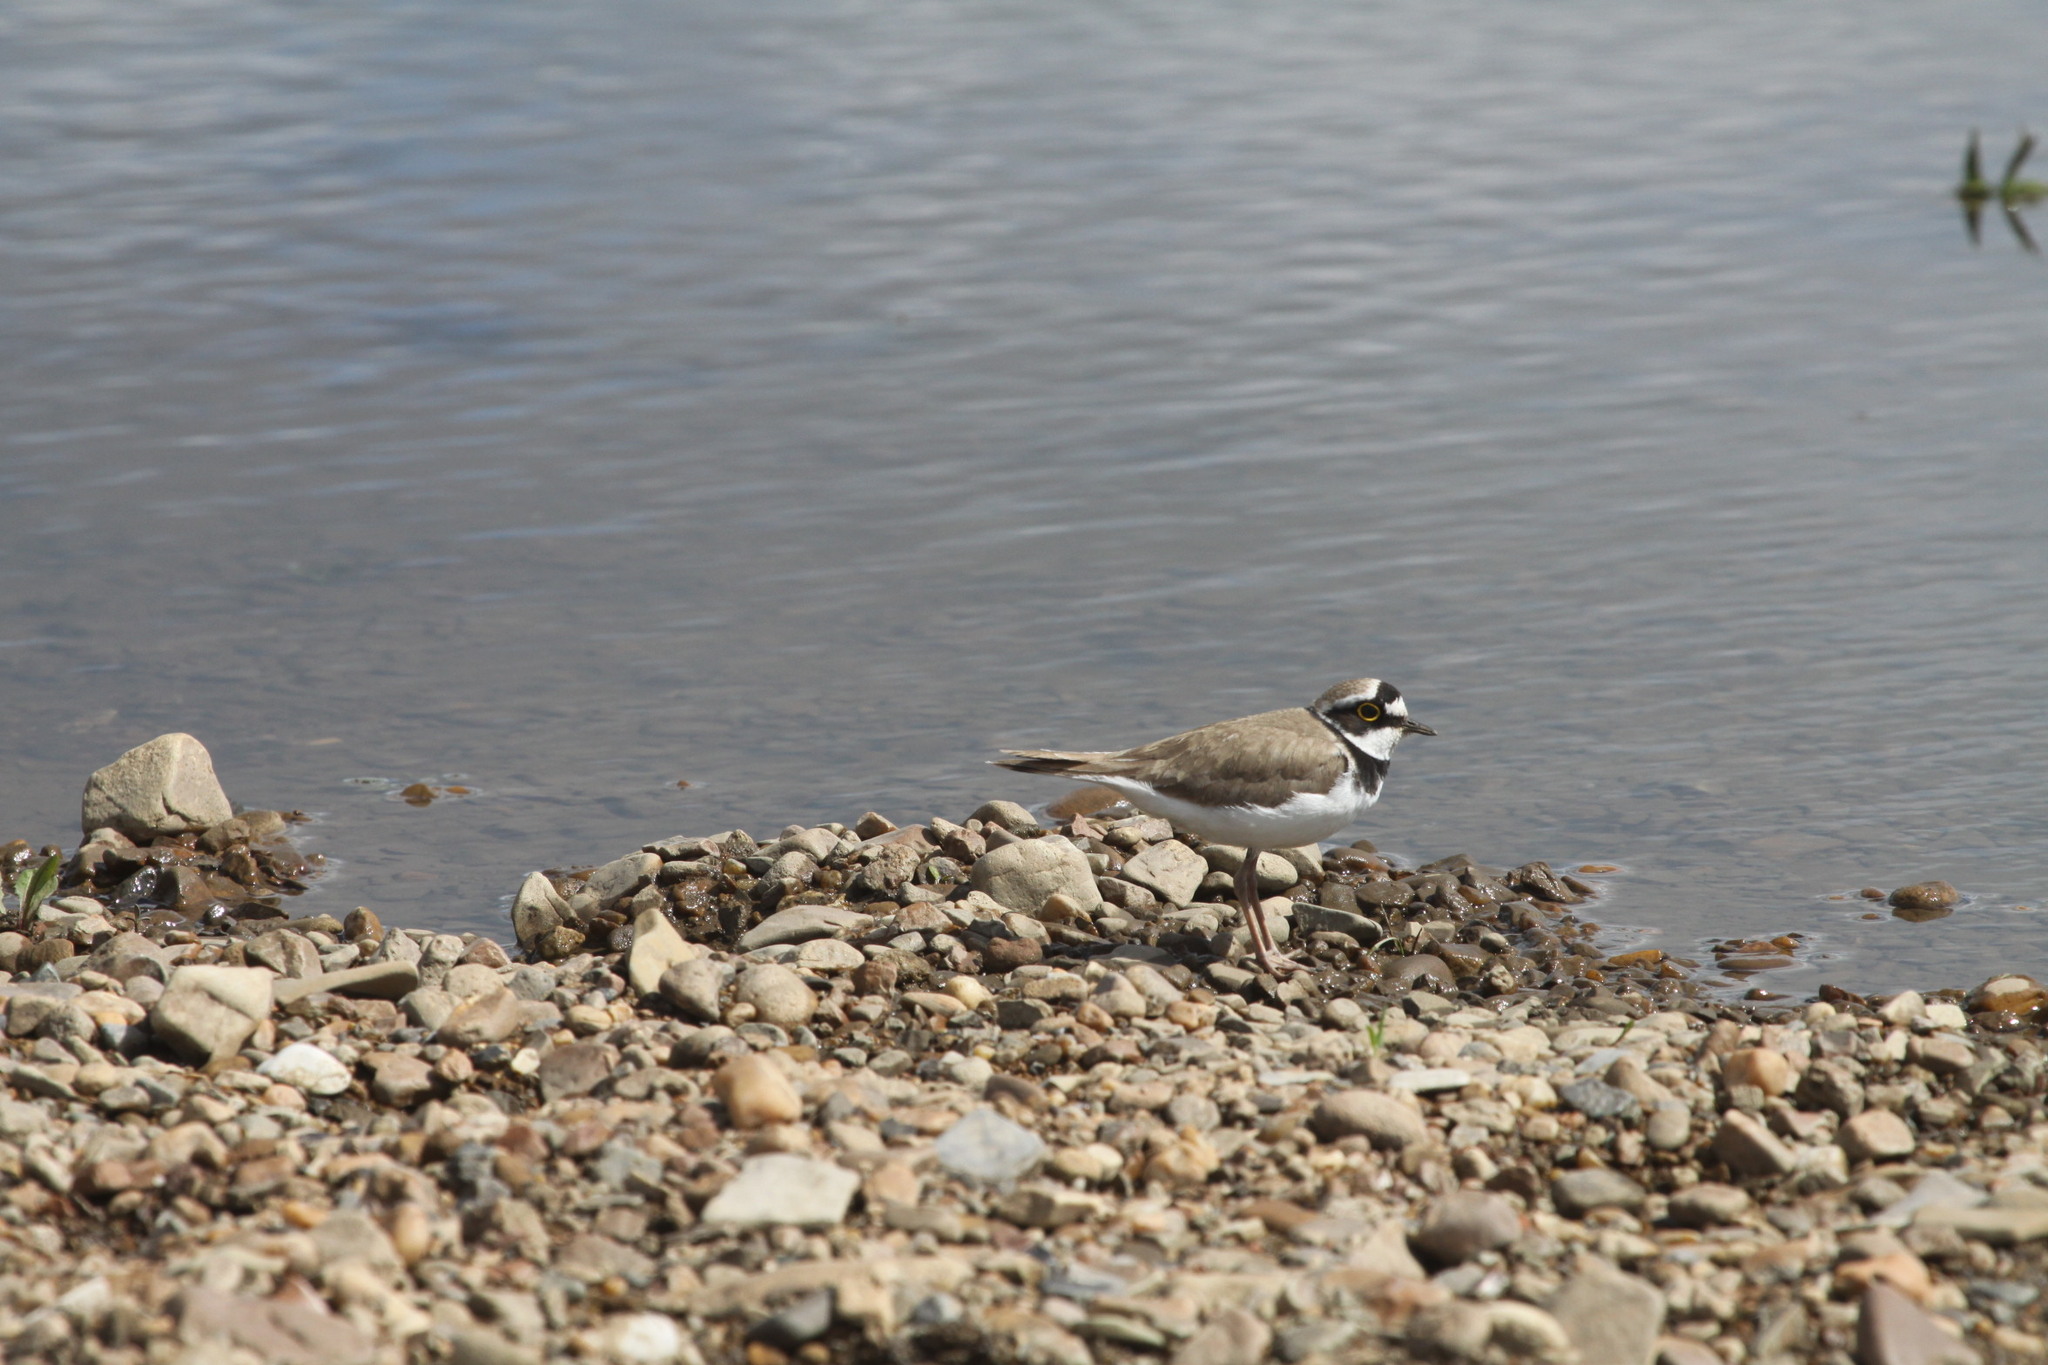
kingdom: Animalia
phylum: Chordata
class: Aves
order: Charadriiformes
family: Charadriidae
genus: Charadrius
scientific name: Charadrius dubius
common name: Little ringed plover
